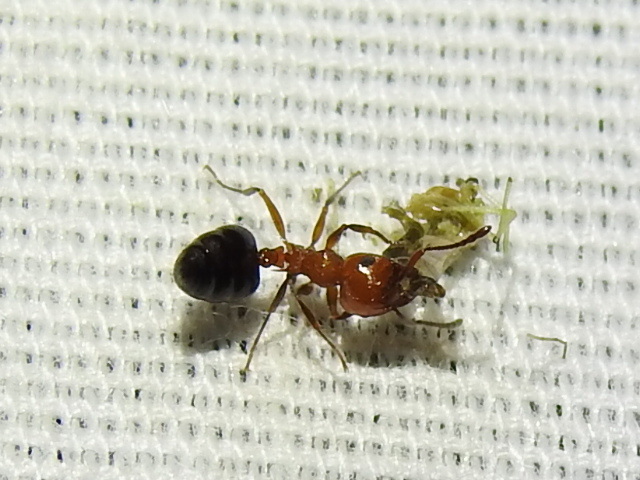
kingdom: Animalia
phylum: Arthropoda
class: Insecta
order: Hymenoptera
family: Formicidae
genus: Crematogaster
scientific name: Crematogaster laeviuscula
